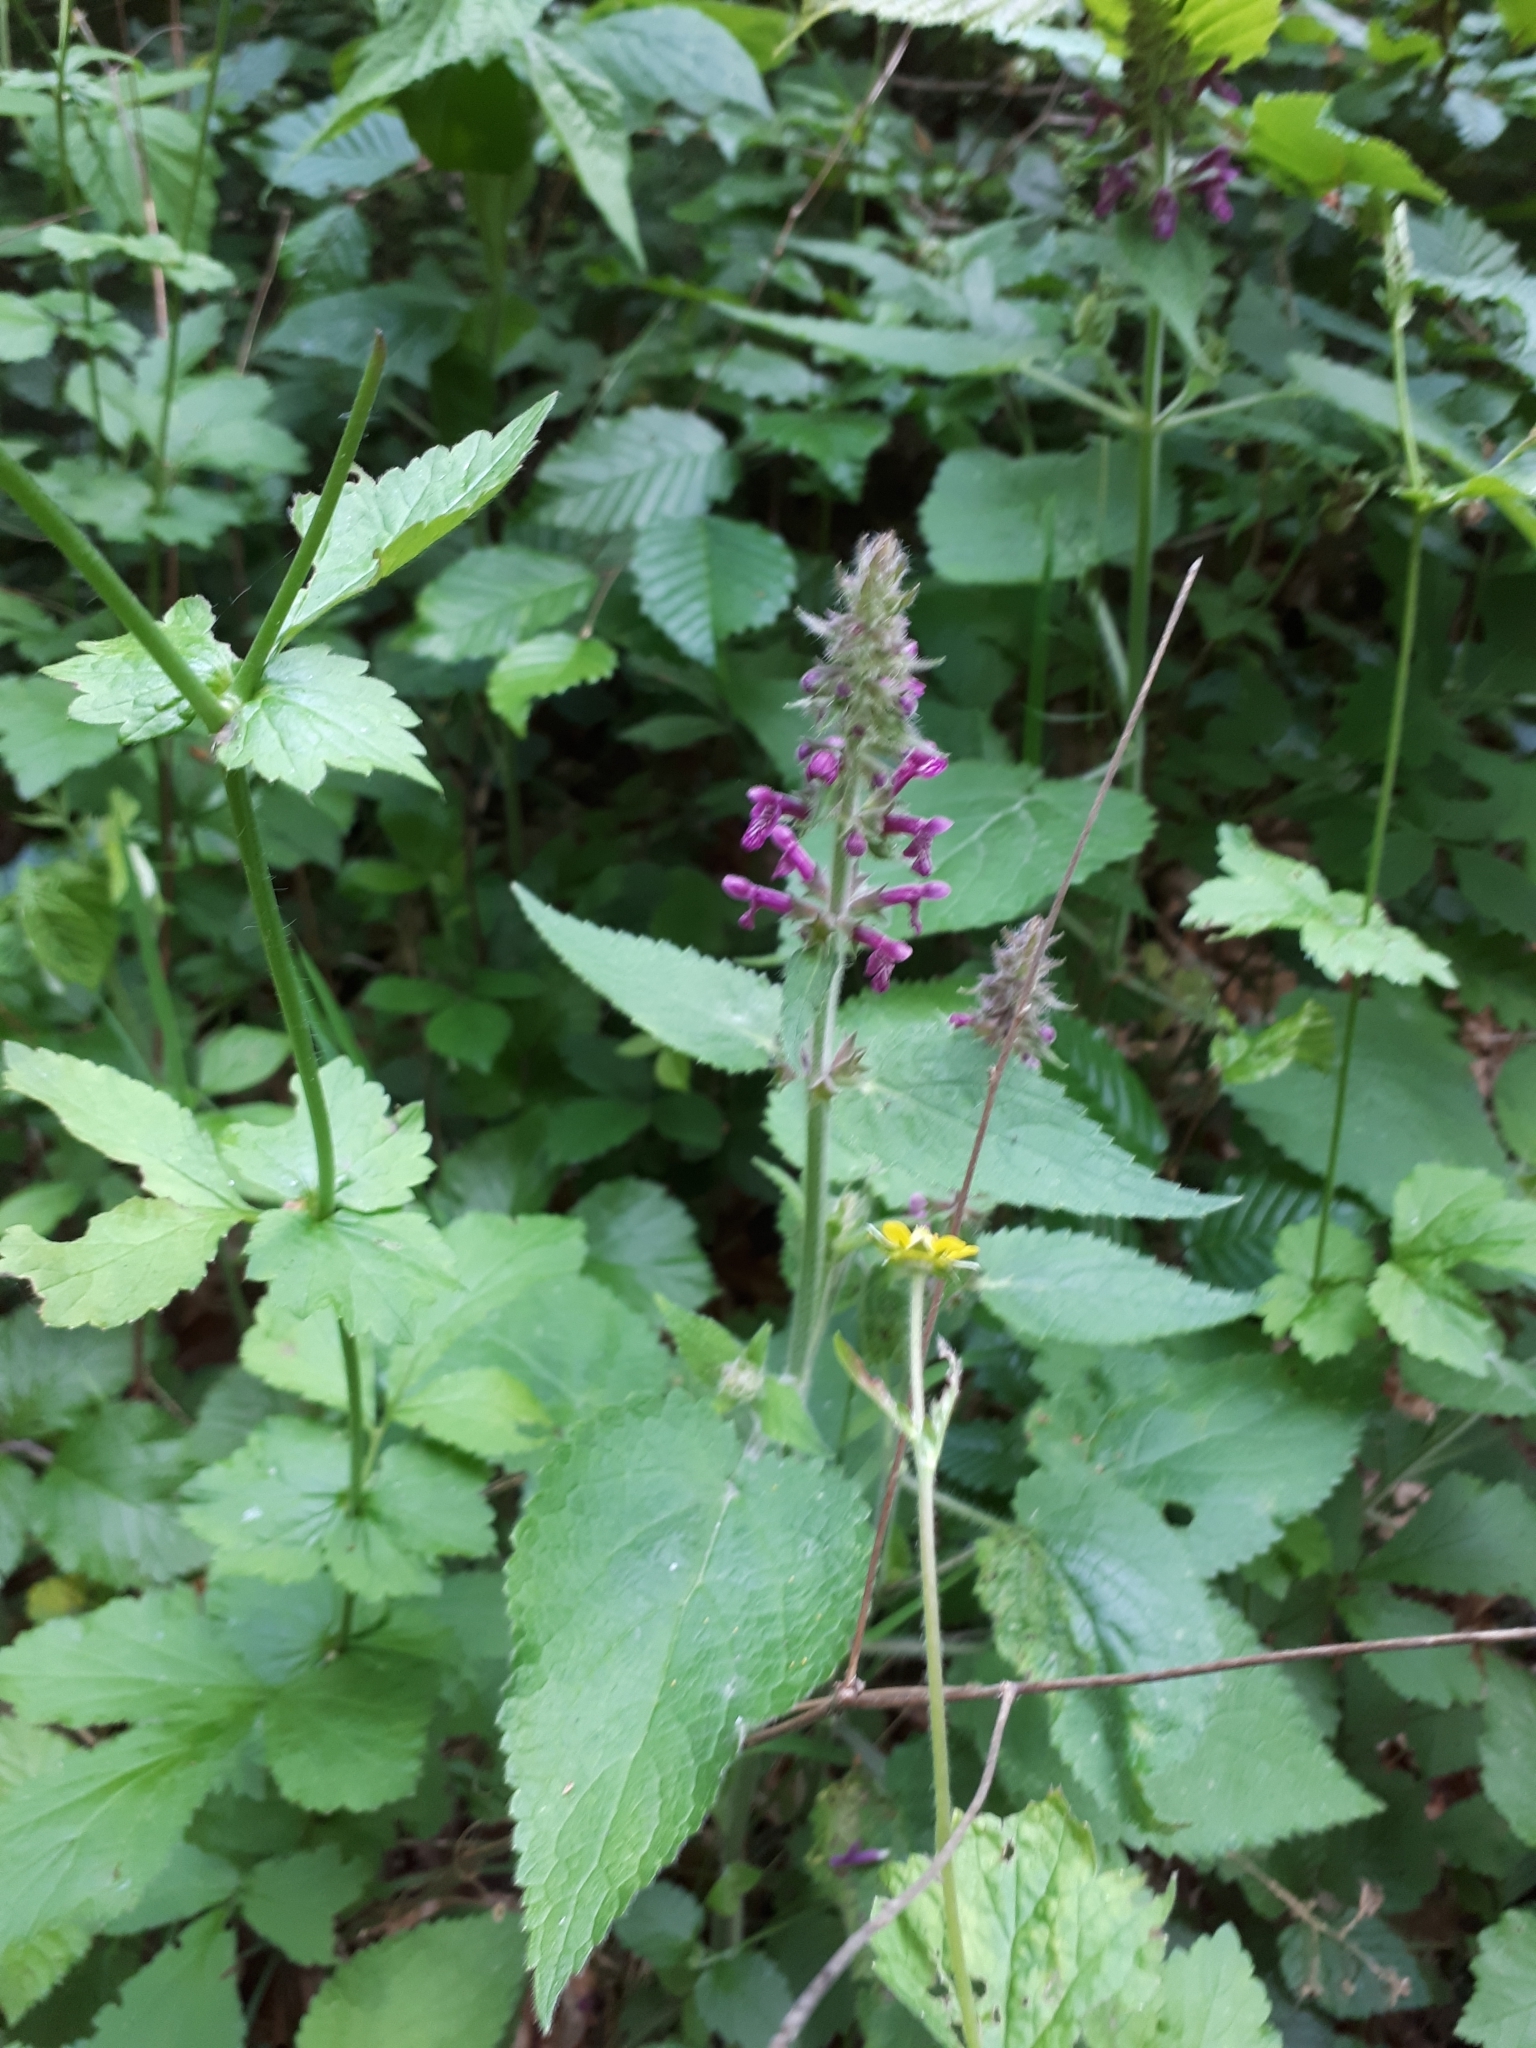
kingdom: Plantae
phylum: Tracheophyta
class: Magnoliopsida
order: Lamiales
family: Lamiaceae
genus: Stachys
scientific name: Stachys sylvatica
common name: Hedge woundwort
